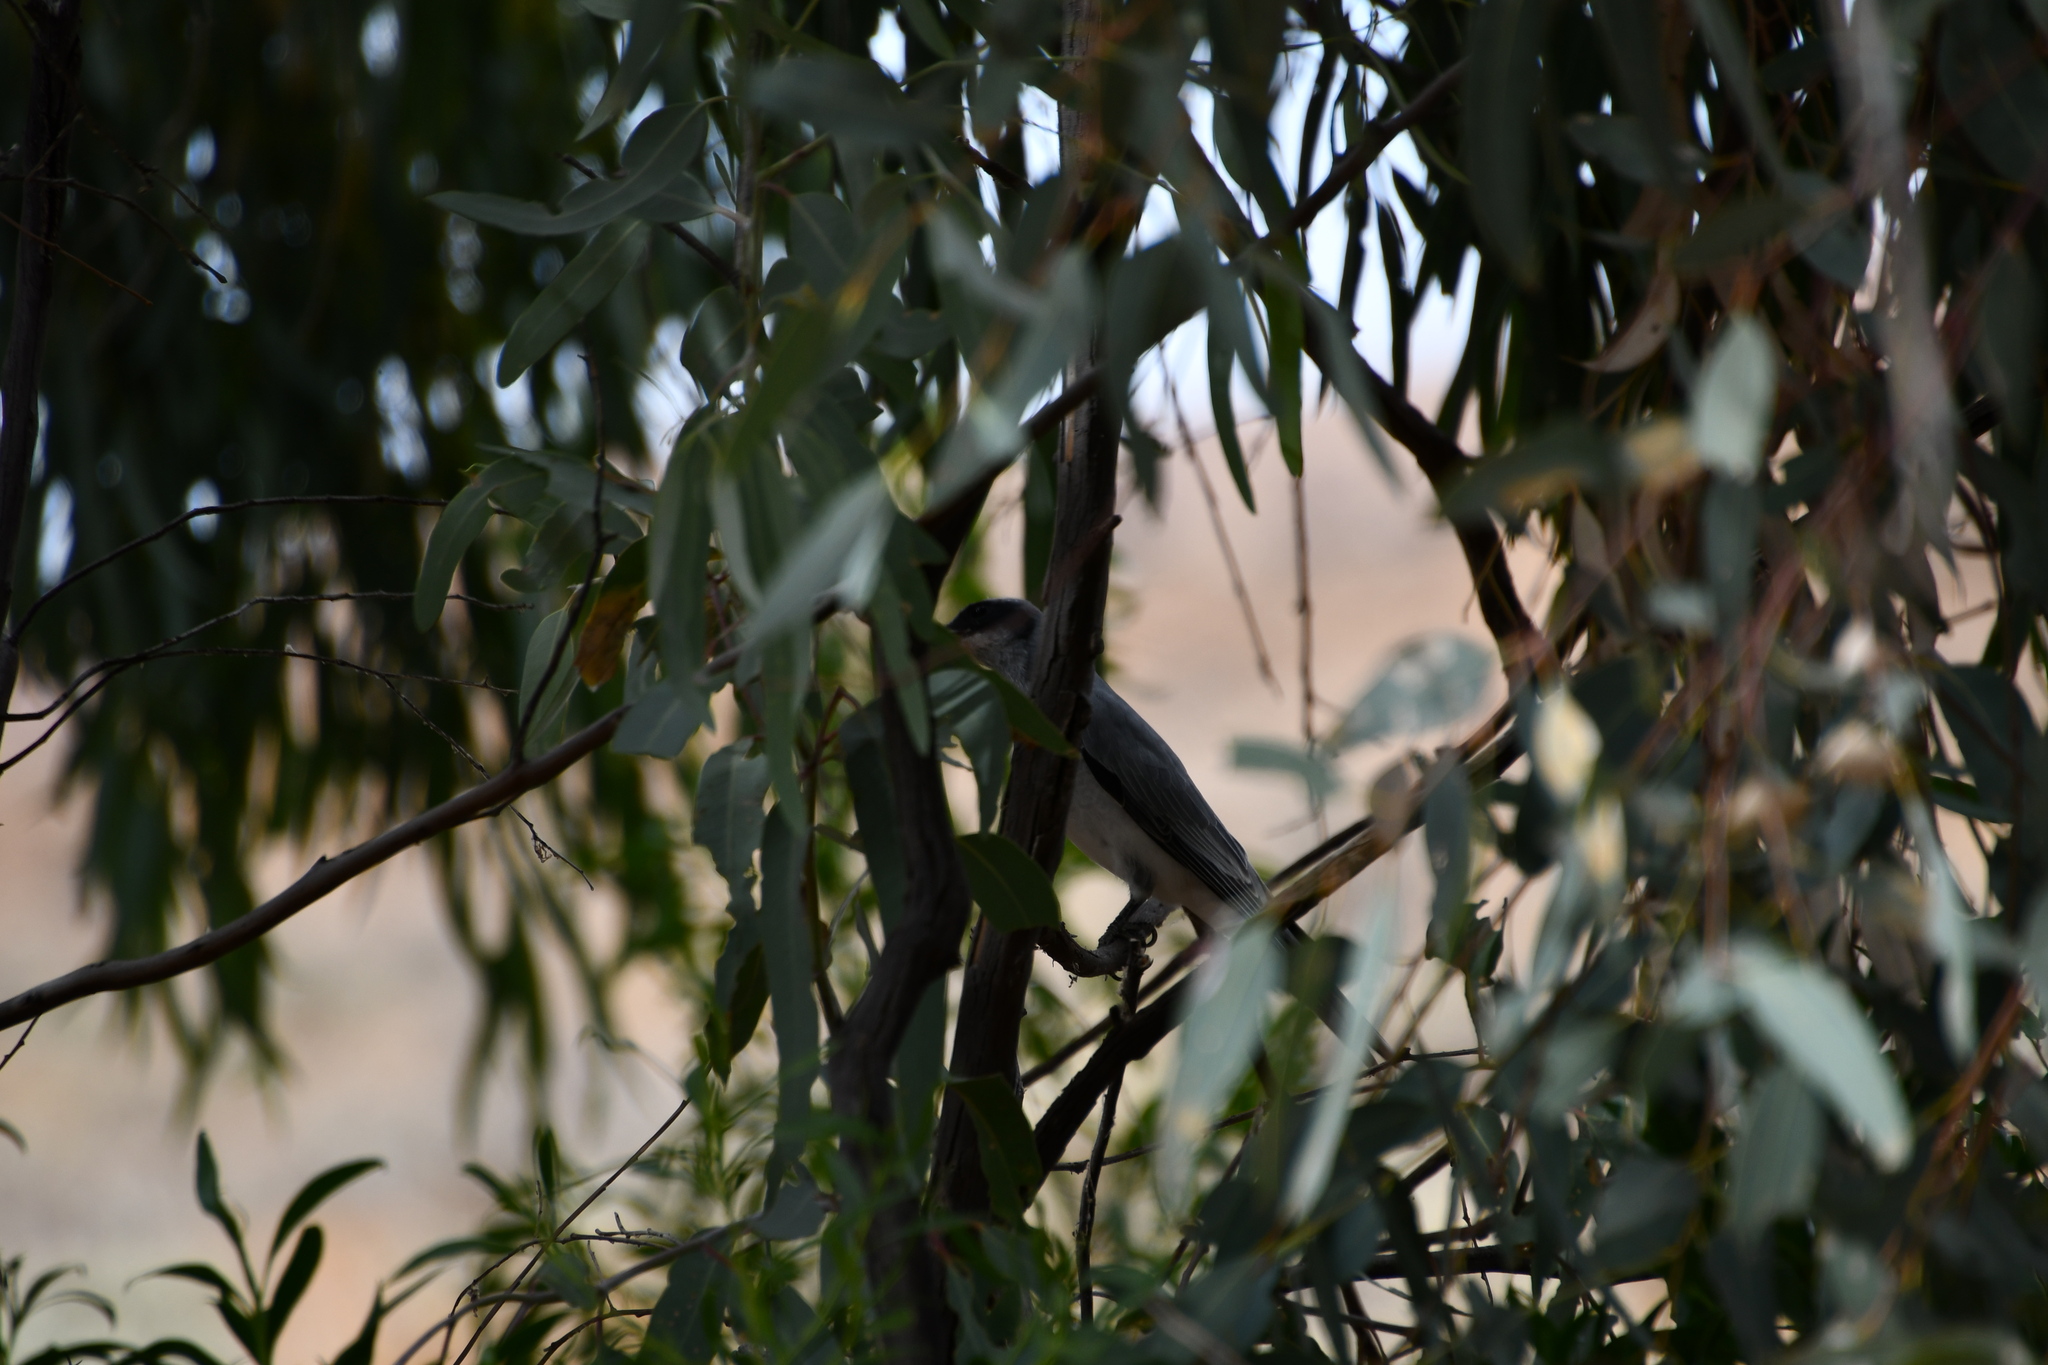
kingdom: Animalia
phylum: Chordata
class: Aves
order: Passeriformes
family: Campephagidae
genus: Coracina
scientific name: Coracina novaehollandiae
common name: Black-faced cuckooshrike
